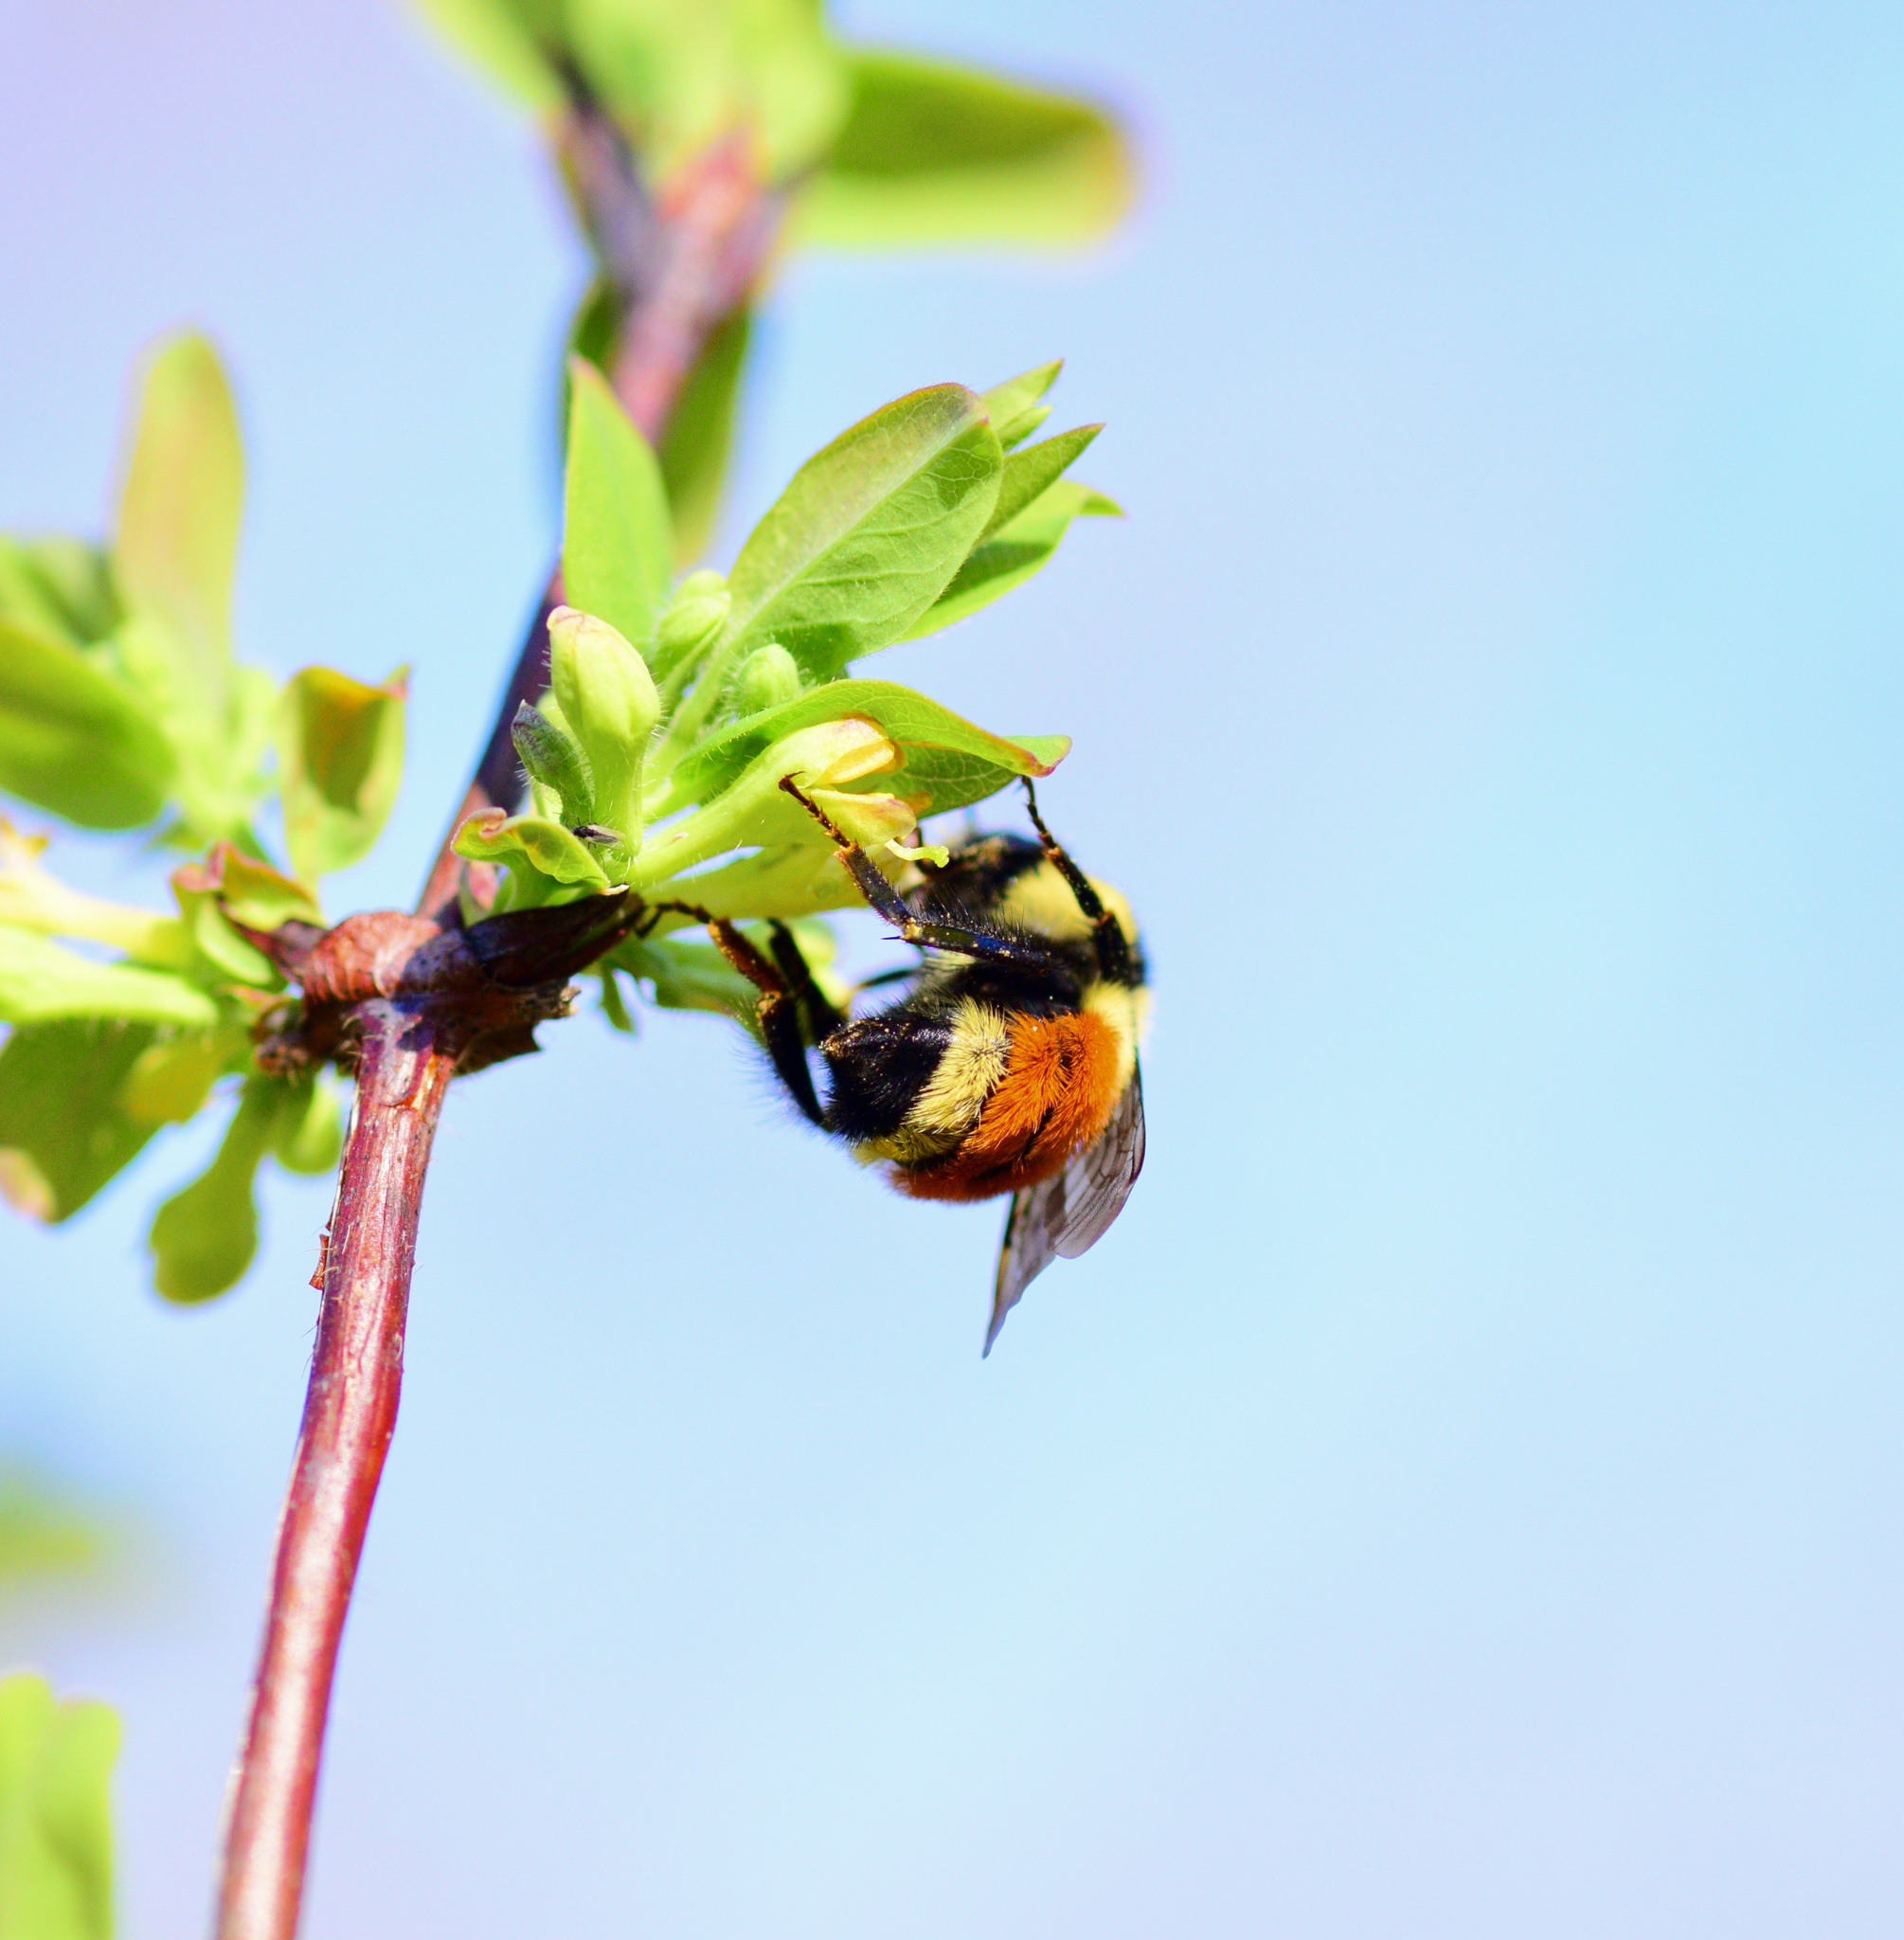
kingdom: Animalia
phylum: Arthropoda
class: Insecta
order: Hymenoptera
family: Apidae
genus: Bombus
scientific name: Bombus ternarius
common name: Tri-colored bumble bee
